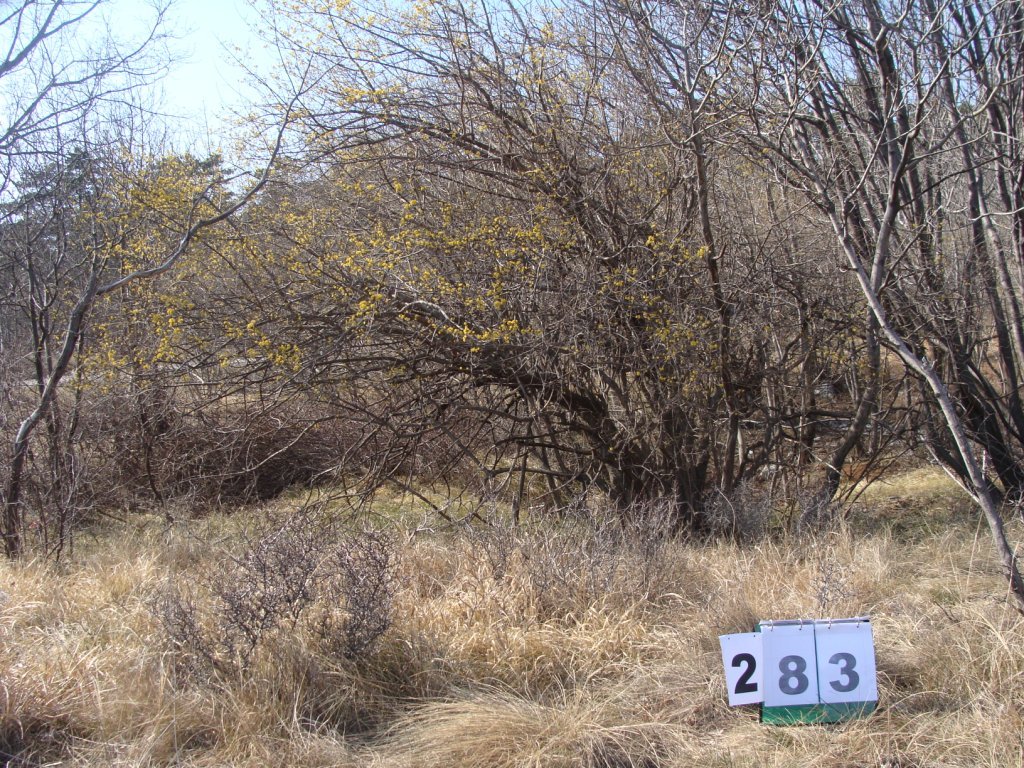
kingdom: Plantae
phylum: Tracheophyta
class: Magnoliopsida
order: Cornales
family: Cornaceae
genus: Cornus
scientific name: Cornus mas
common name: Cornelian-cherry
